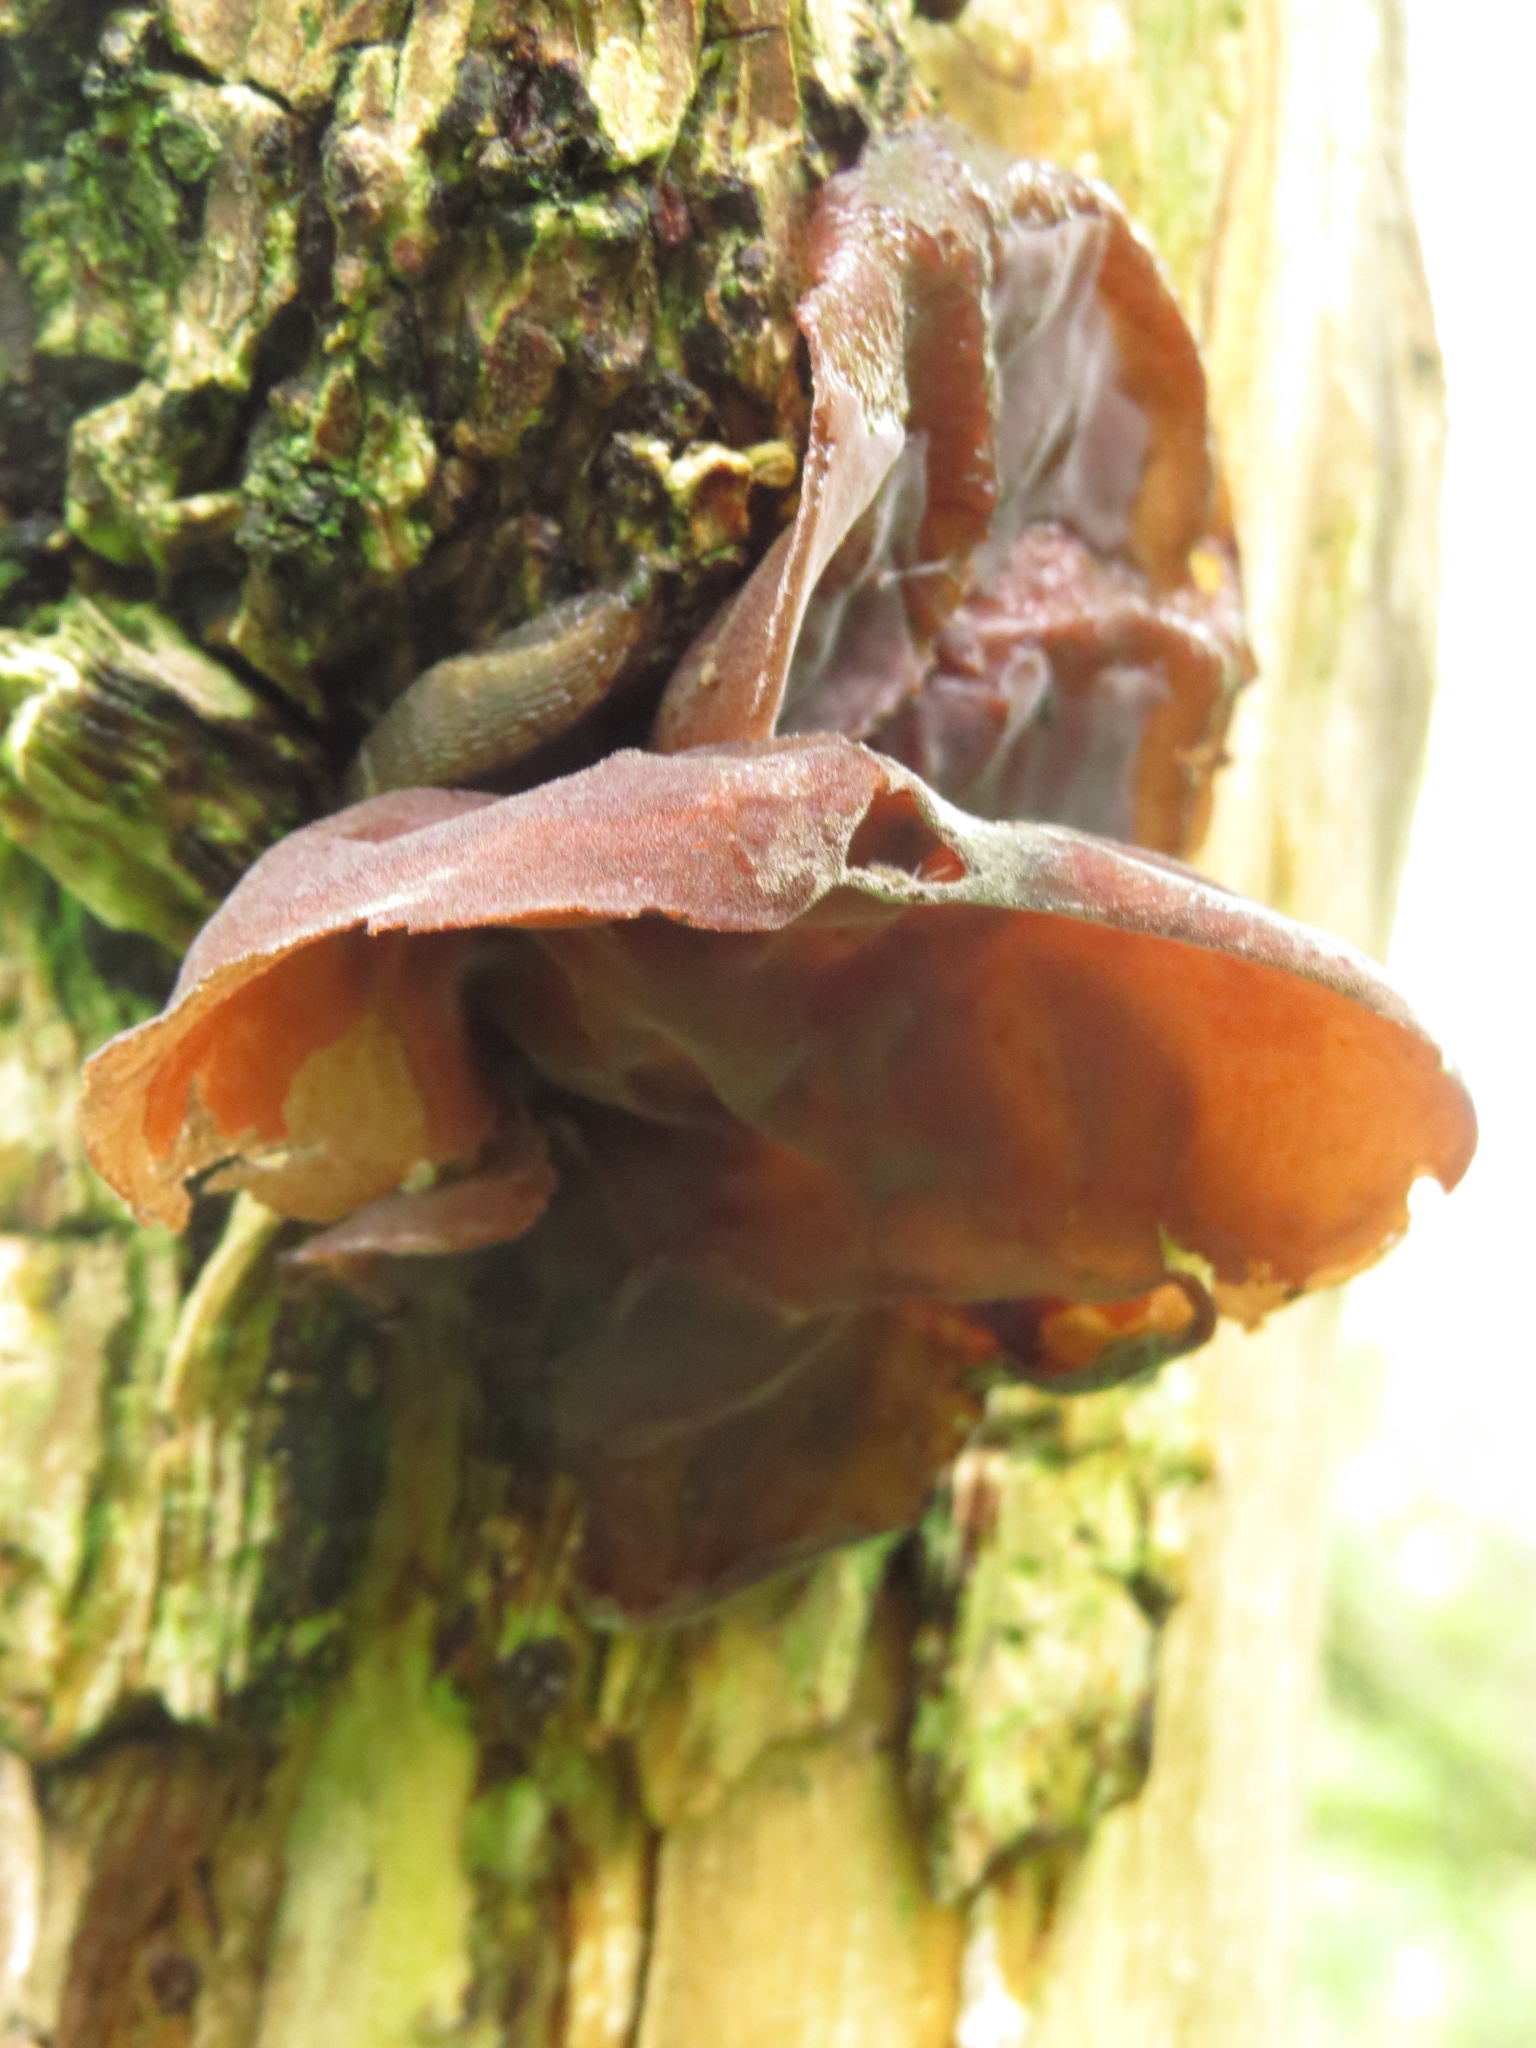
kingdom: Fungi
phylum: Basidiomycota
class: Agaricomycetes
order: Auriculariales
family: Auriculariaceae
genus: Auricularia
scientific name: Auricularia auricula-judae
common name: Jelly ear
